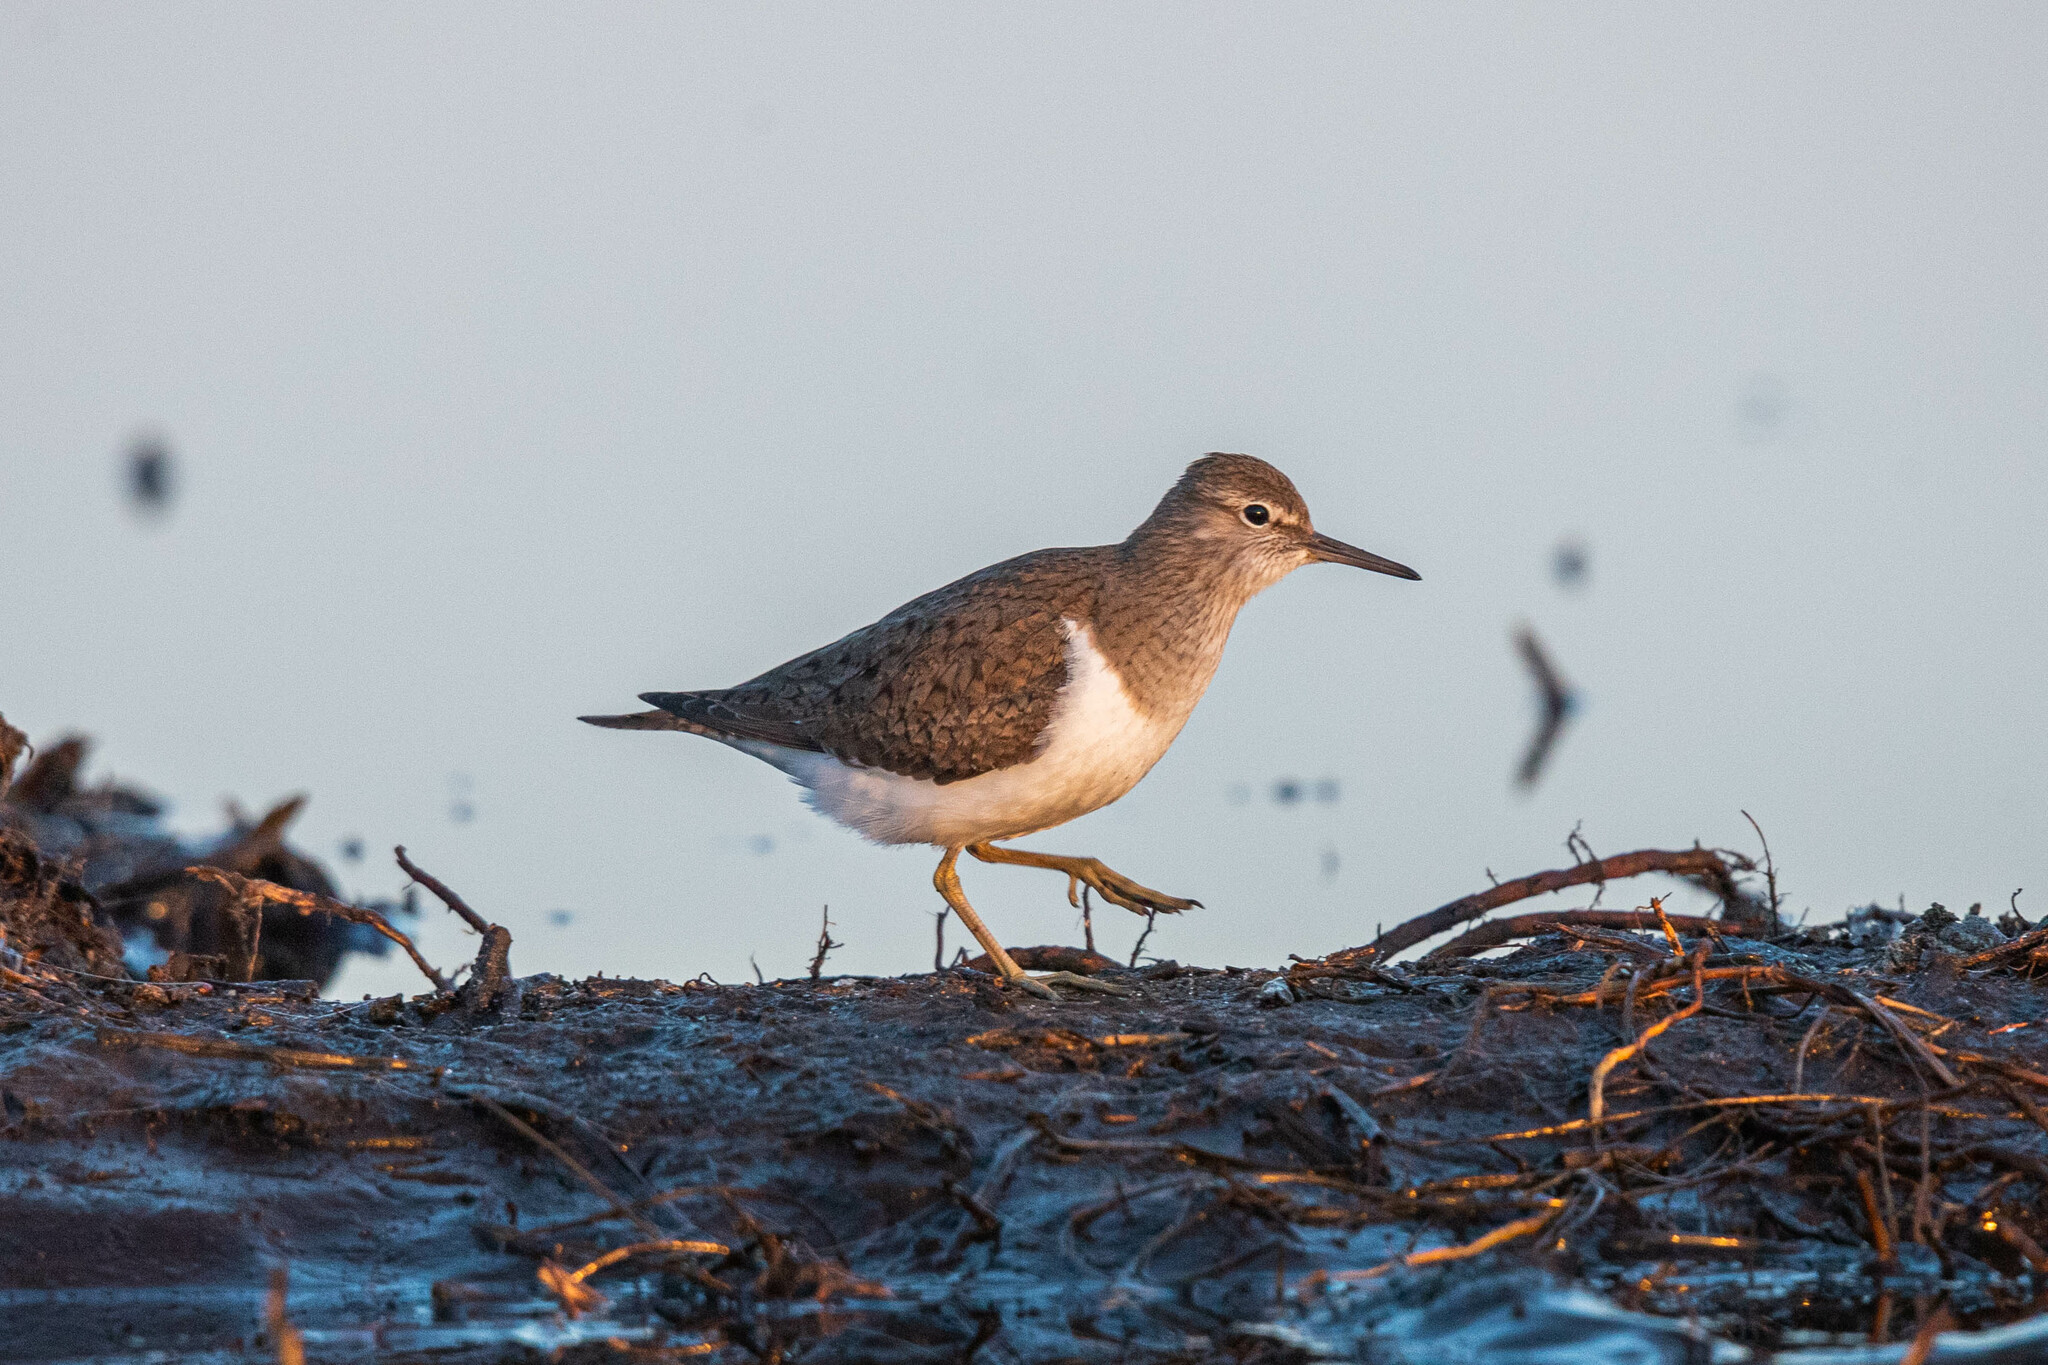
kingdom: Animalia
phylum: Chordata
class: Aves
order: Charadriiformes
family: Scolopacidae
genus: Actitis
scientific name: Actitis hypoleucos
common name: Common sandpiper
